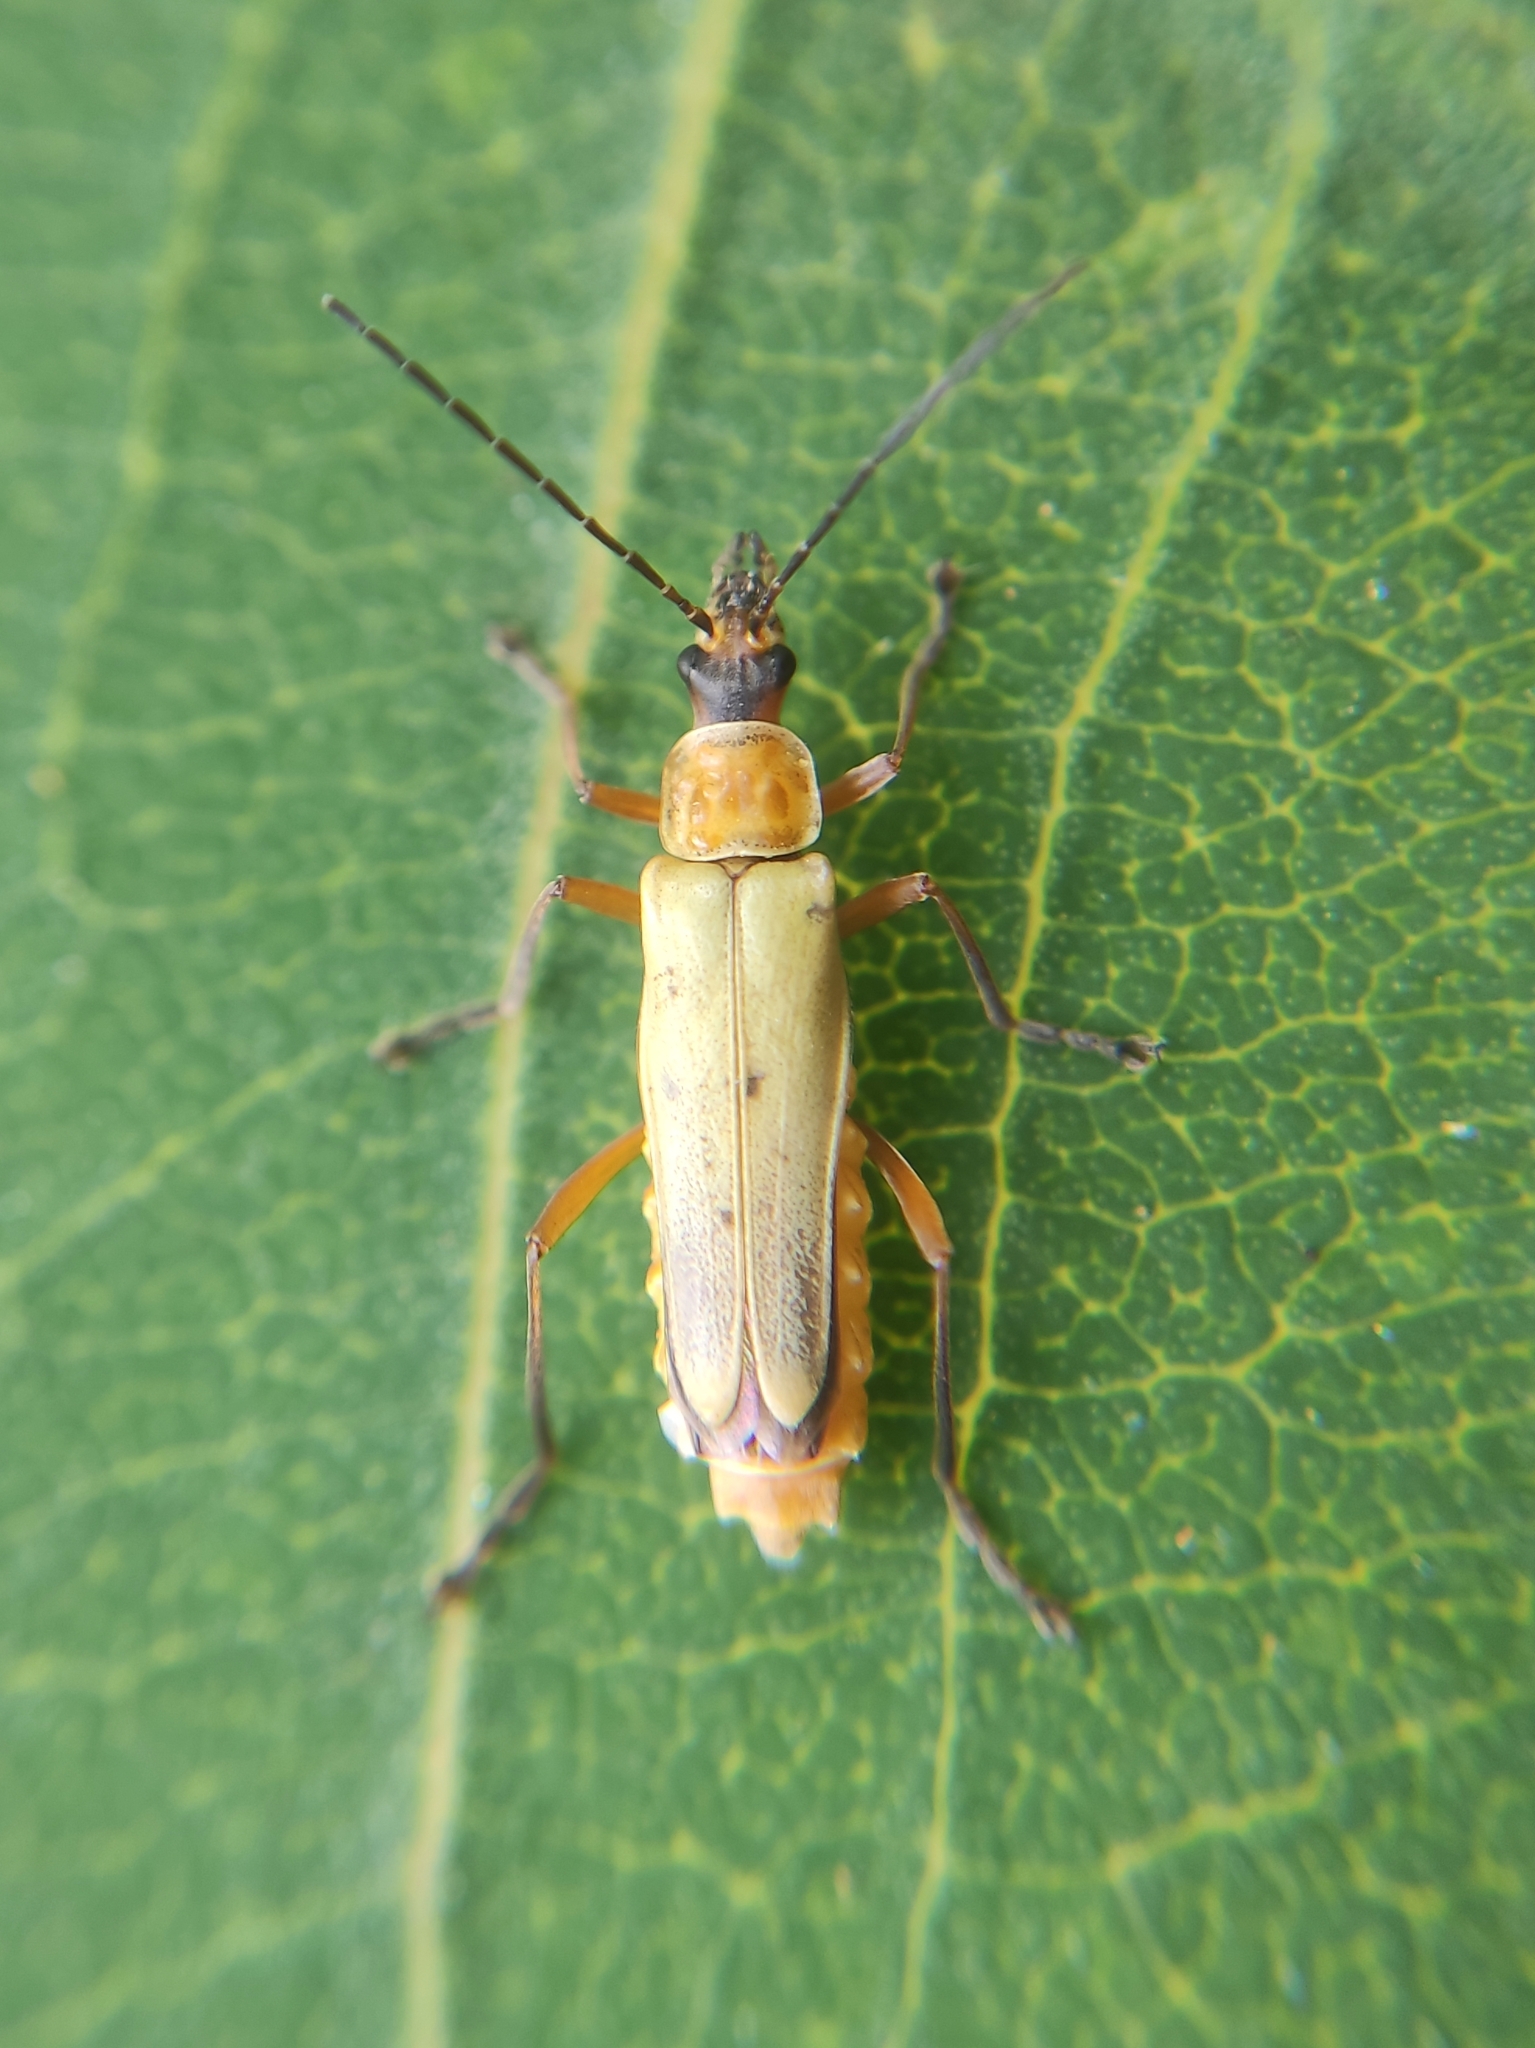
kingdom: Animalia
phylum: Arthropoda
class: Insecta
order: Coleoptera
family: Cantharidae
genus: Chauliognathus
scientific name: Chauliognathus
